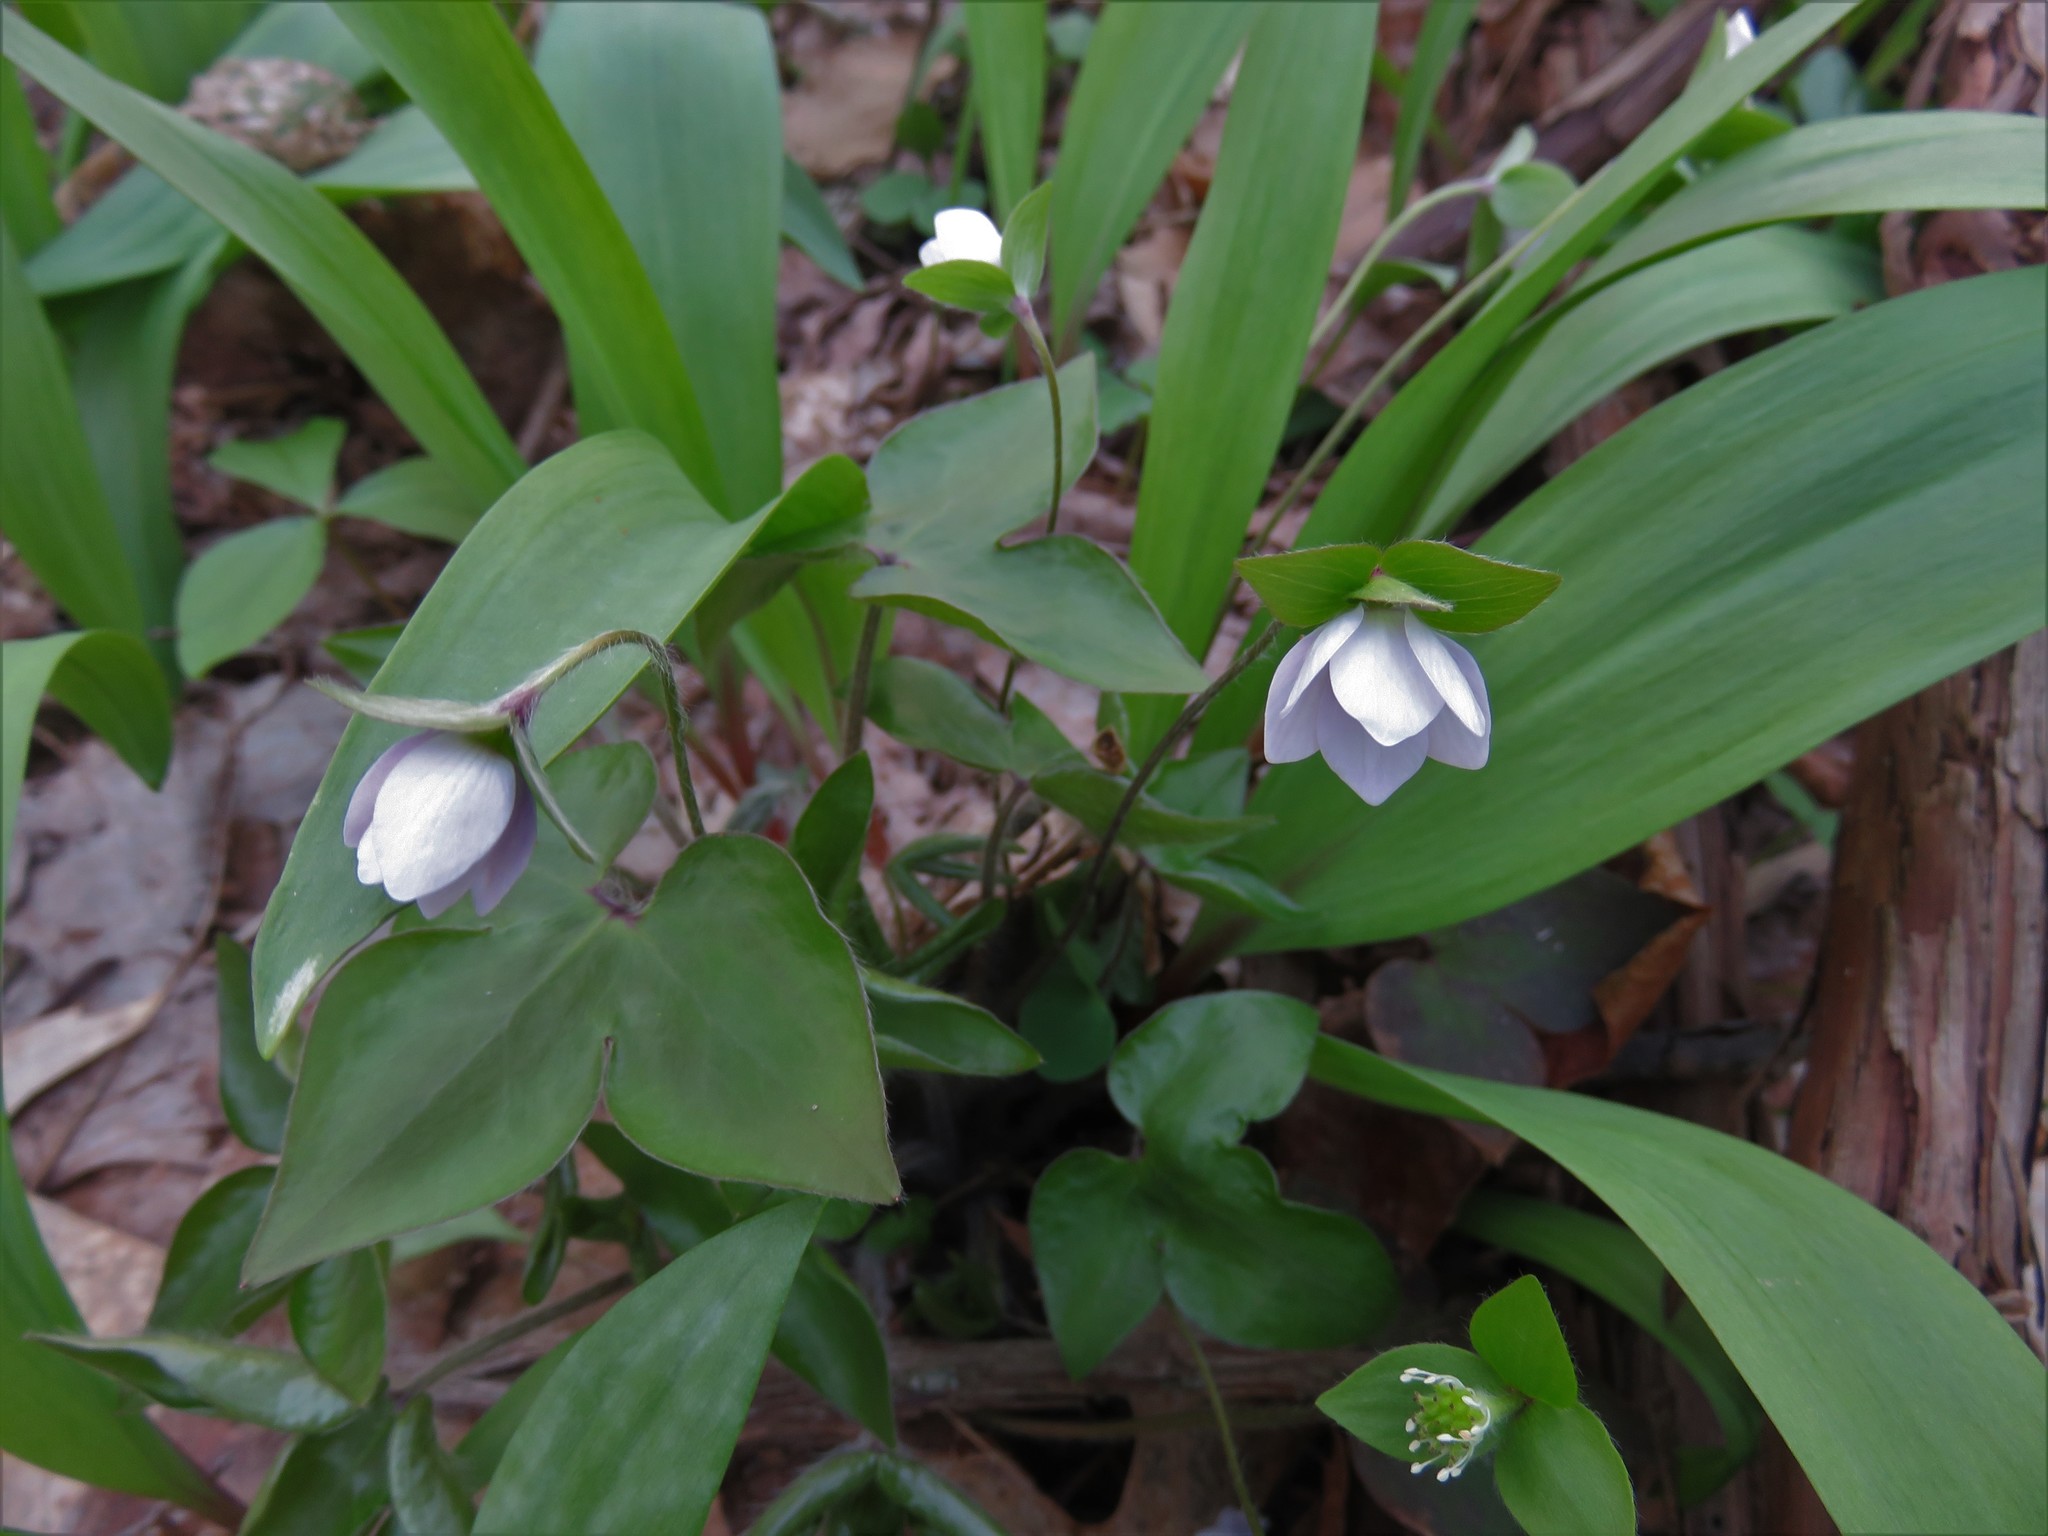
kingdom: Plantae
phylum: Tracheophyta
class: Magnoliopsida
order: Ranunculales
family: Ranunculaceae
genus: Hepatica
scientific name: Hepatica acutiloba
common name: Sharp-lobed hepatica
